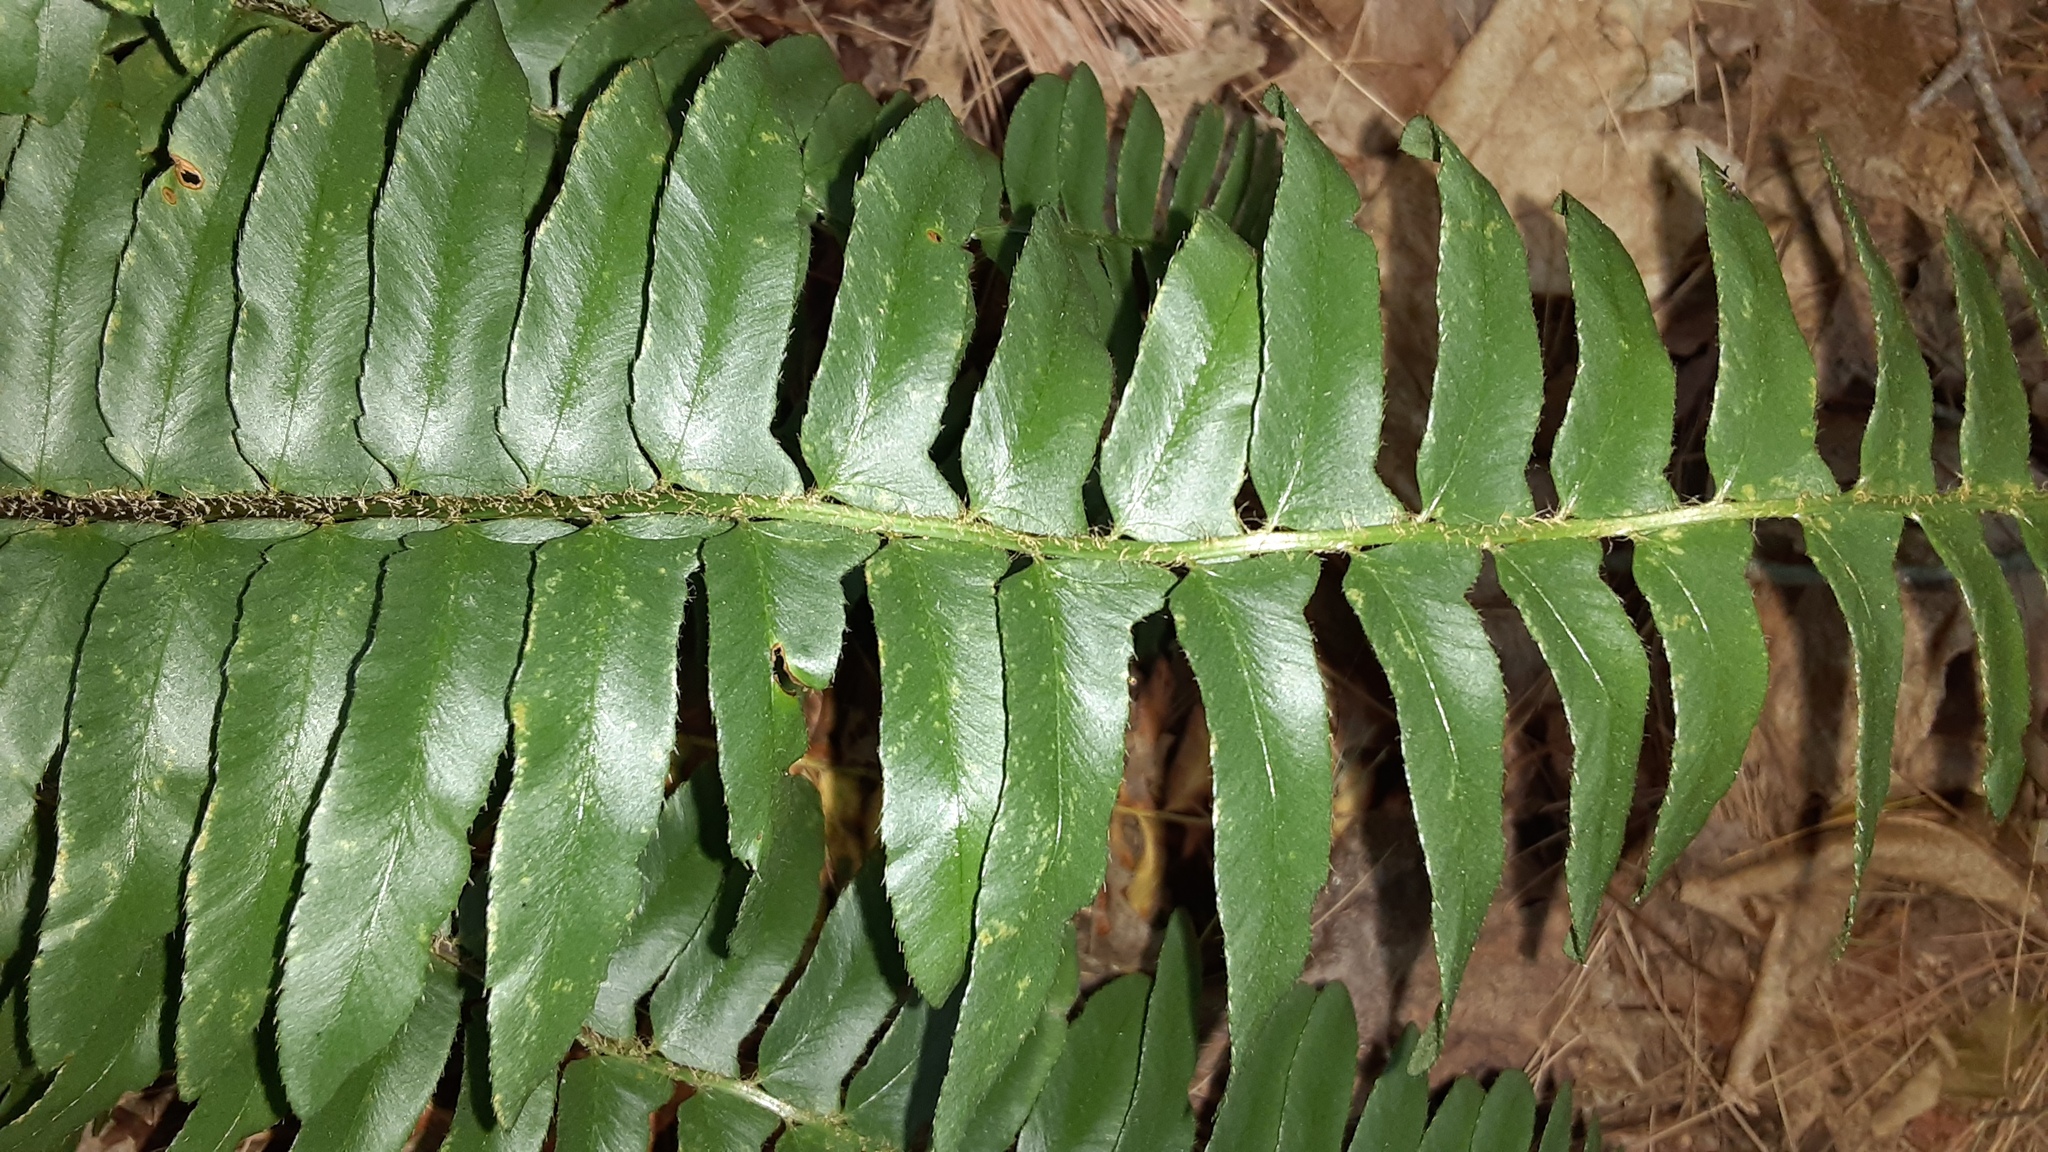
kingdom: Plantae
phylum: Tracheophyta
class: Polypodiopsida
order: Polypodiales
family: Dryopteridaceae
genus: Polystichum
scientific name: Polystichum acrostichoides
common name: Christmas fern
